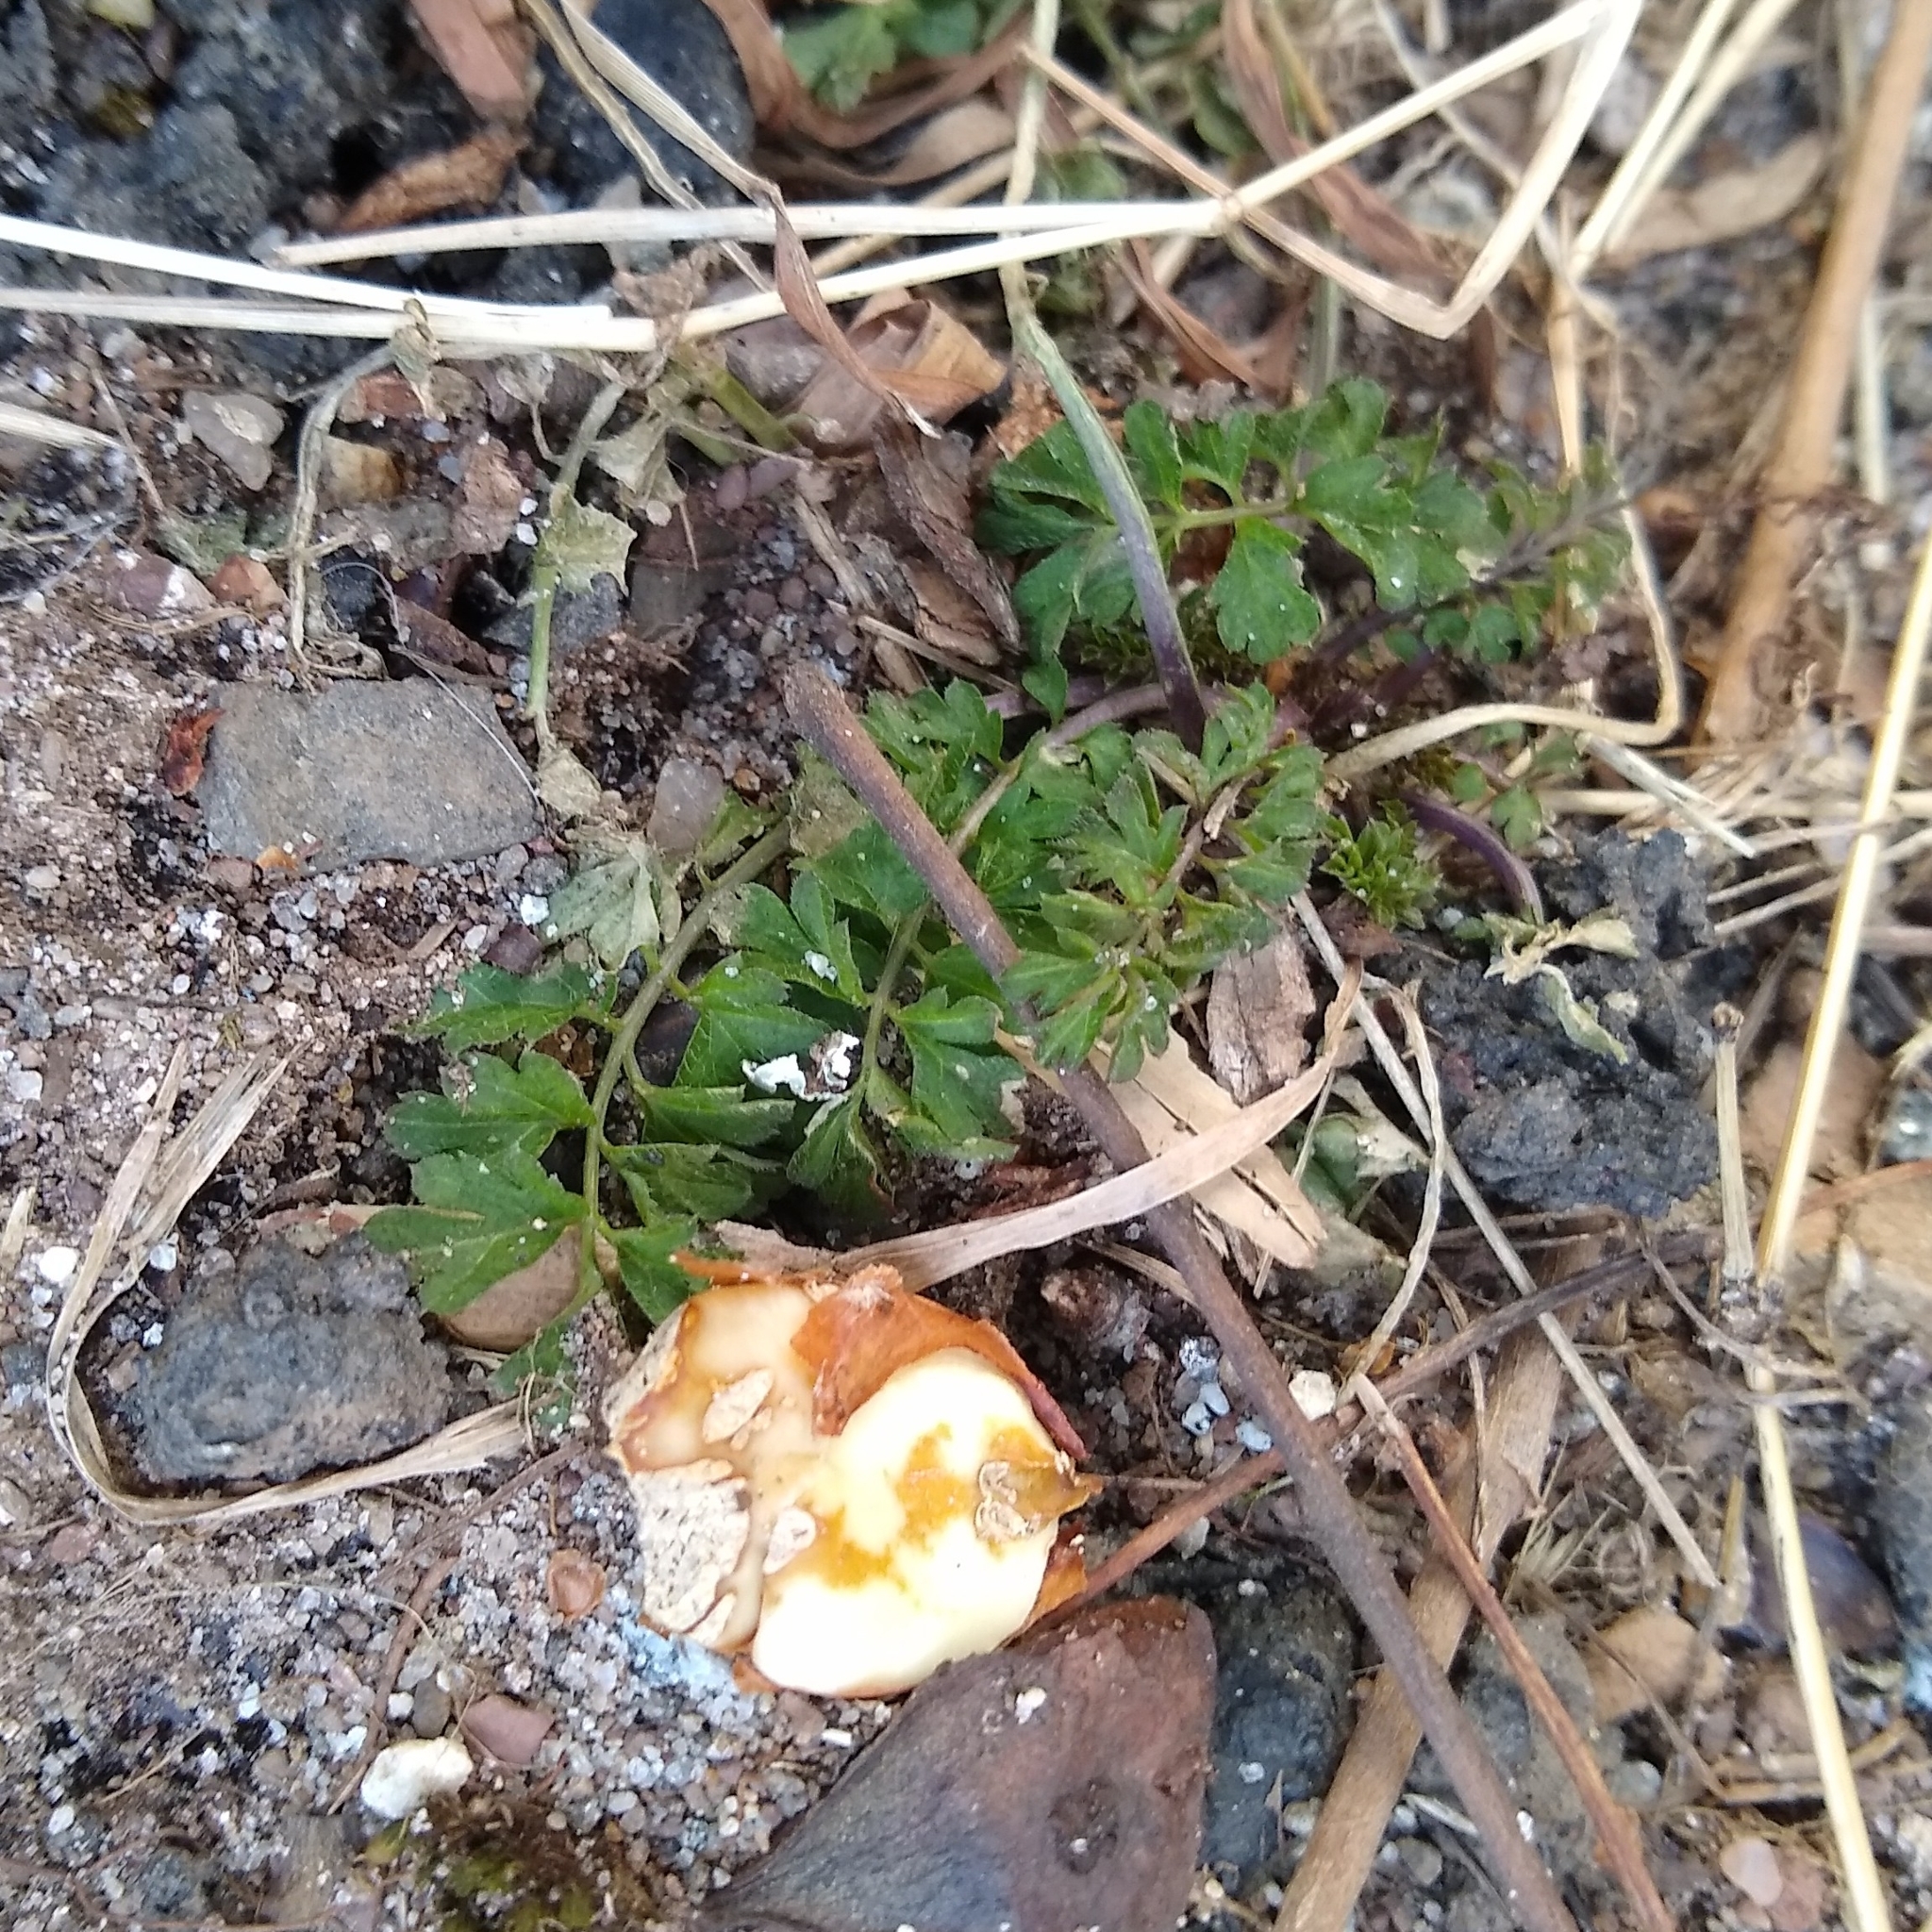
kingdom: Plantae
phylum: Tracheophyta
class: Magnoliopsida
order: Brassicales
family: Brassicaceae
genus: Cardamine
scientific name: Cardamine impatiens
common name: Narrow-leaved bitter-cress
